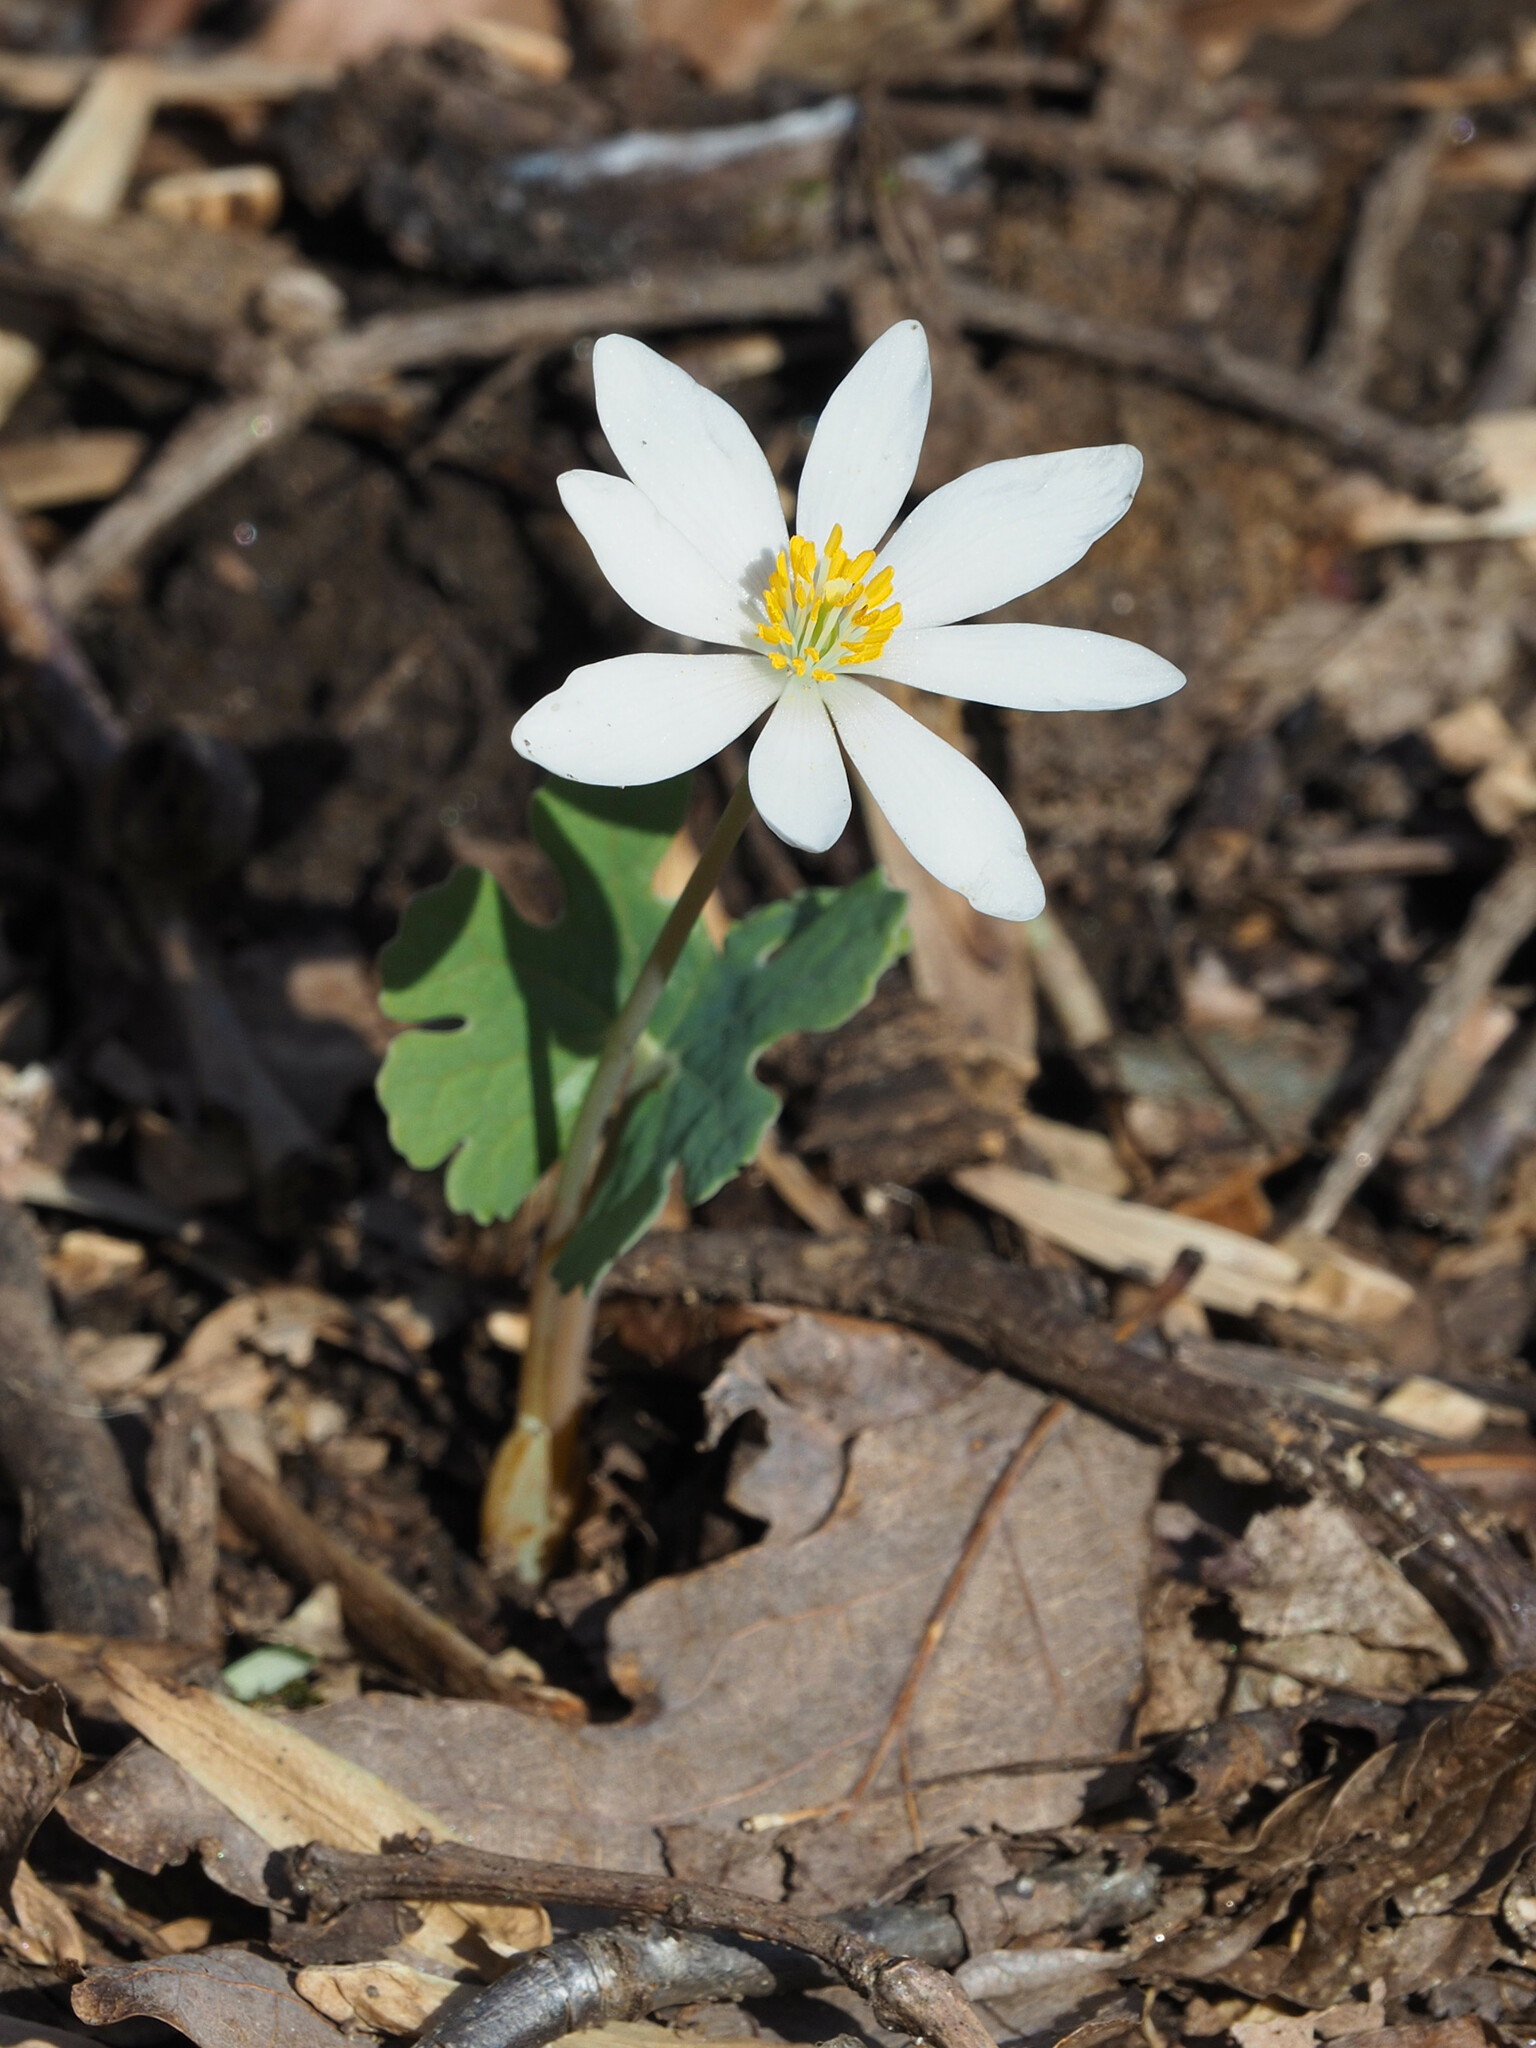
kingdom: Plantae
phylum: Tracheophyta
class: Magnoliopsida
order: Ranunculales
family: Papaveraceae
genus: Sanguinaria
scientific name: Sanguinaria canadensis
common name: Bloodroot
